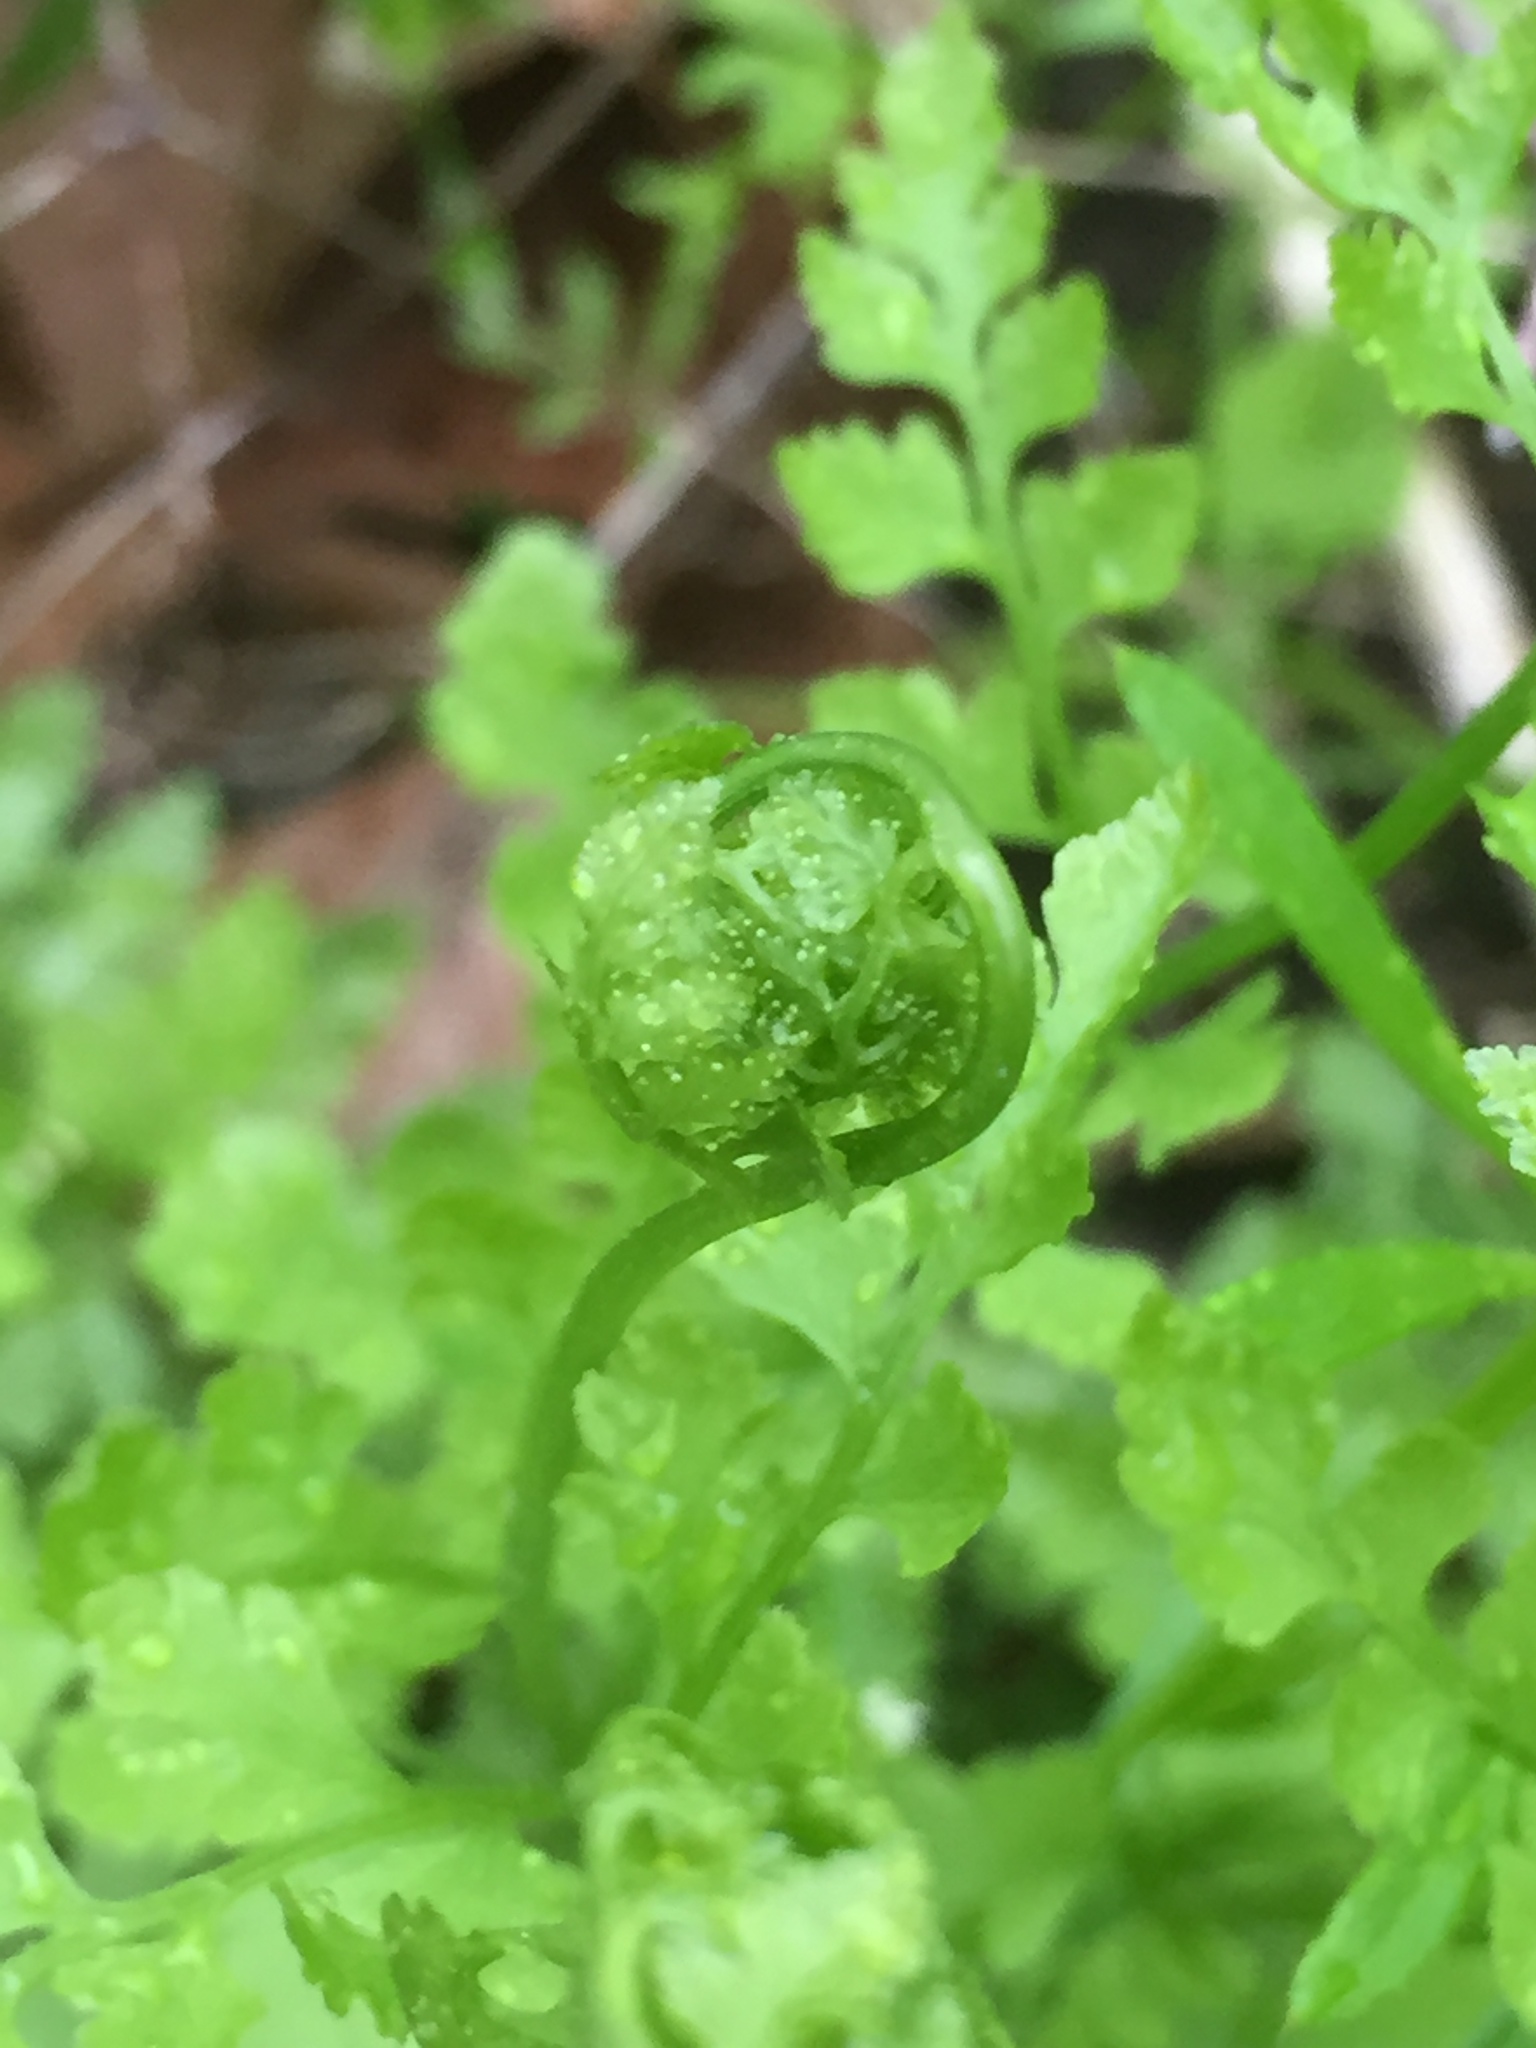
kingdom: Plantae
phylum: Tracheophyta
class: Polypodiopsida
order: Polypodiales
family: Cystopteridaceae
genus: Cystopteris
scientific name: Cystopteris protrusa
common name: Lowland brittle fern
